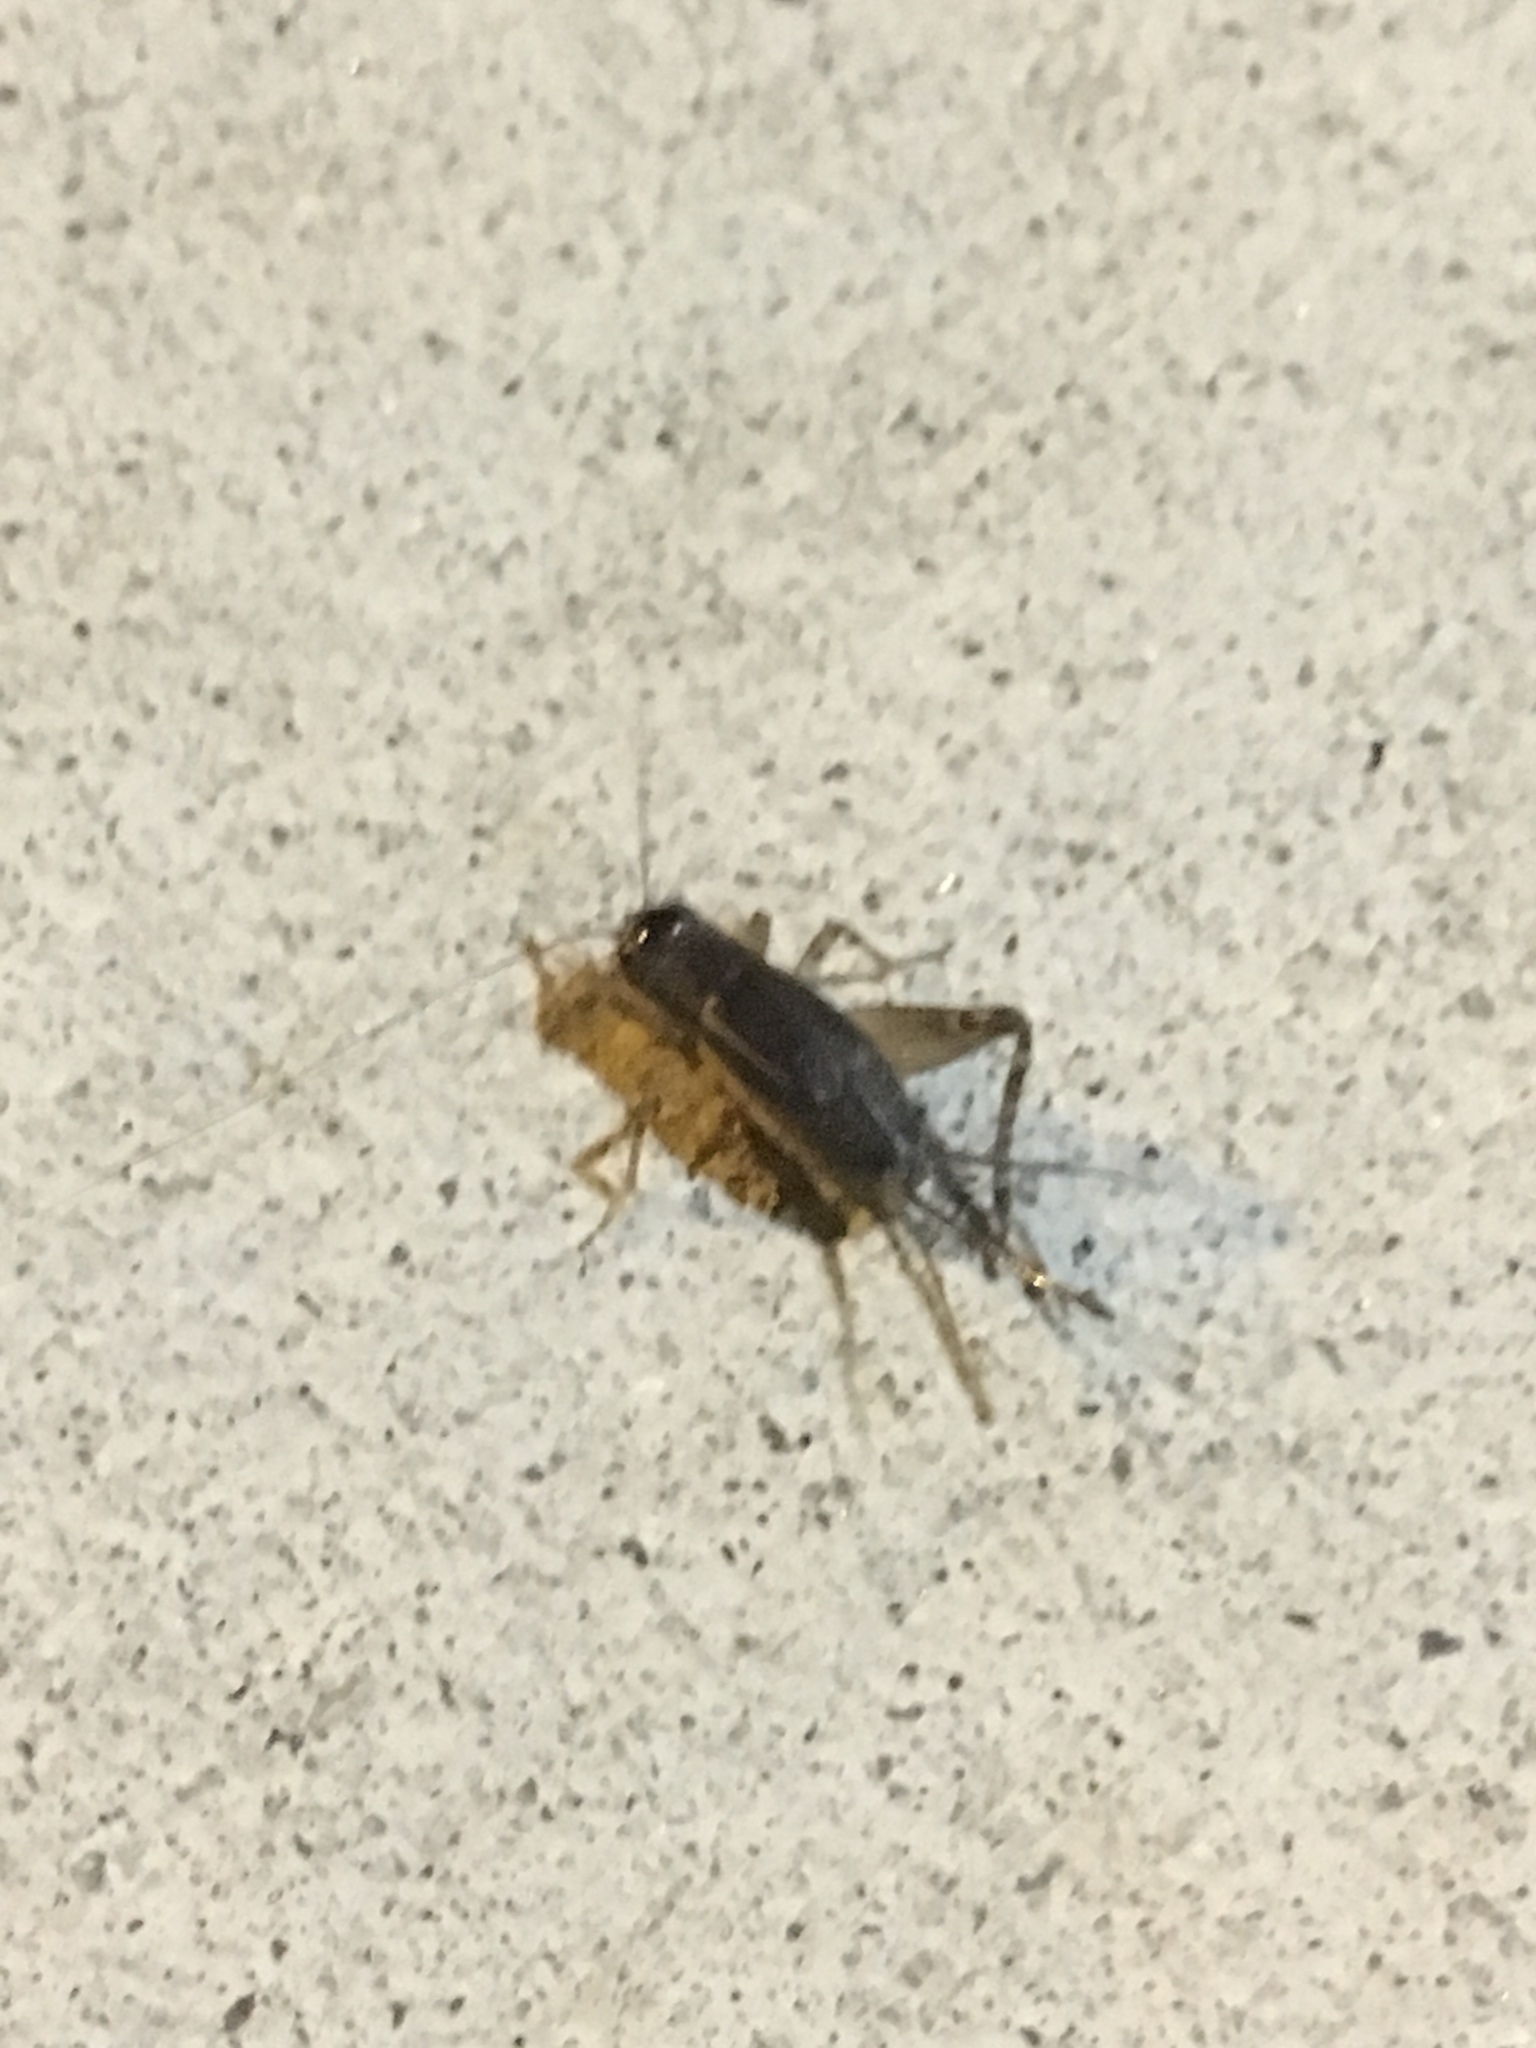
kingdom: Animalia
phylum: Arthropoda
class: Insecta
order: Orthoptera
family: Gryllidae
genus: Velarifictorus
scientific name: Velarifictorus micado
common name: Japanese burrowing cricket
